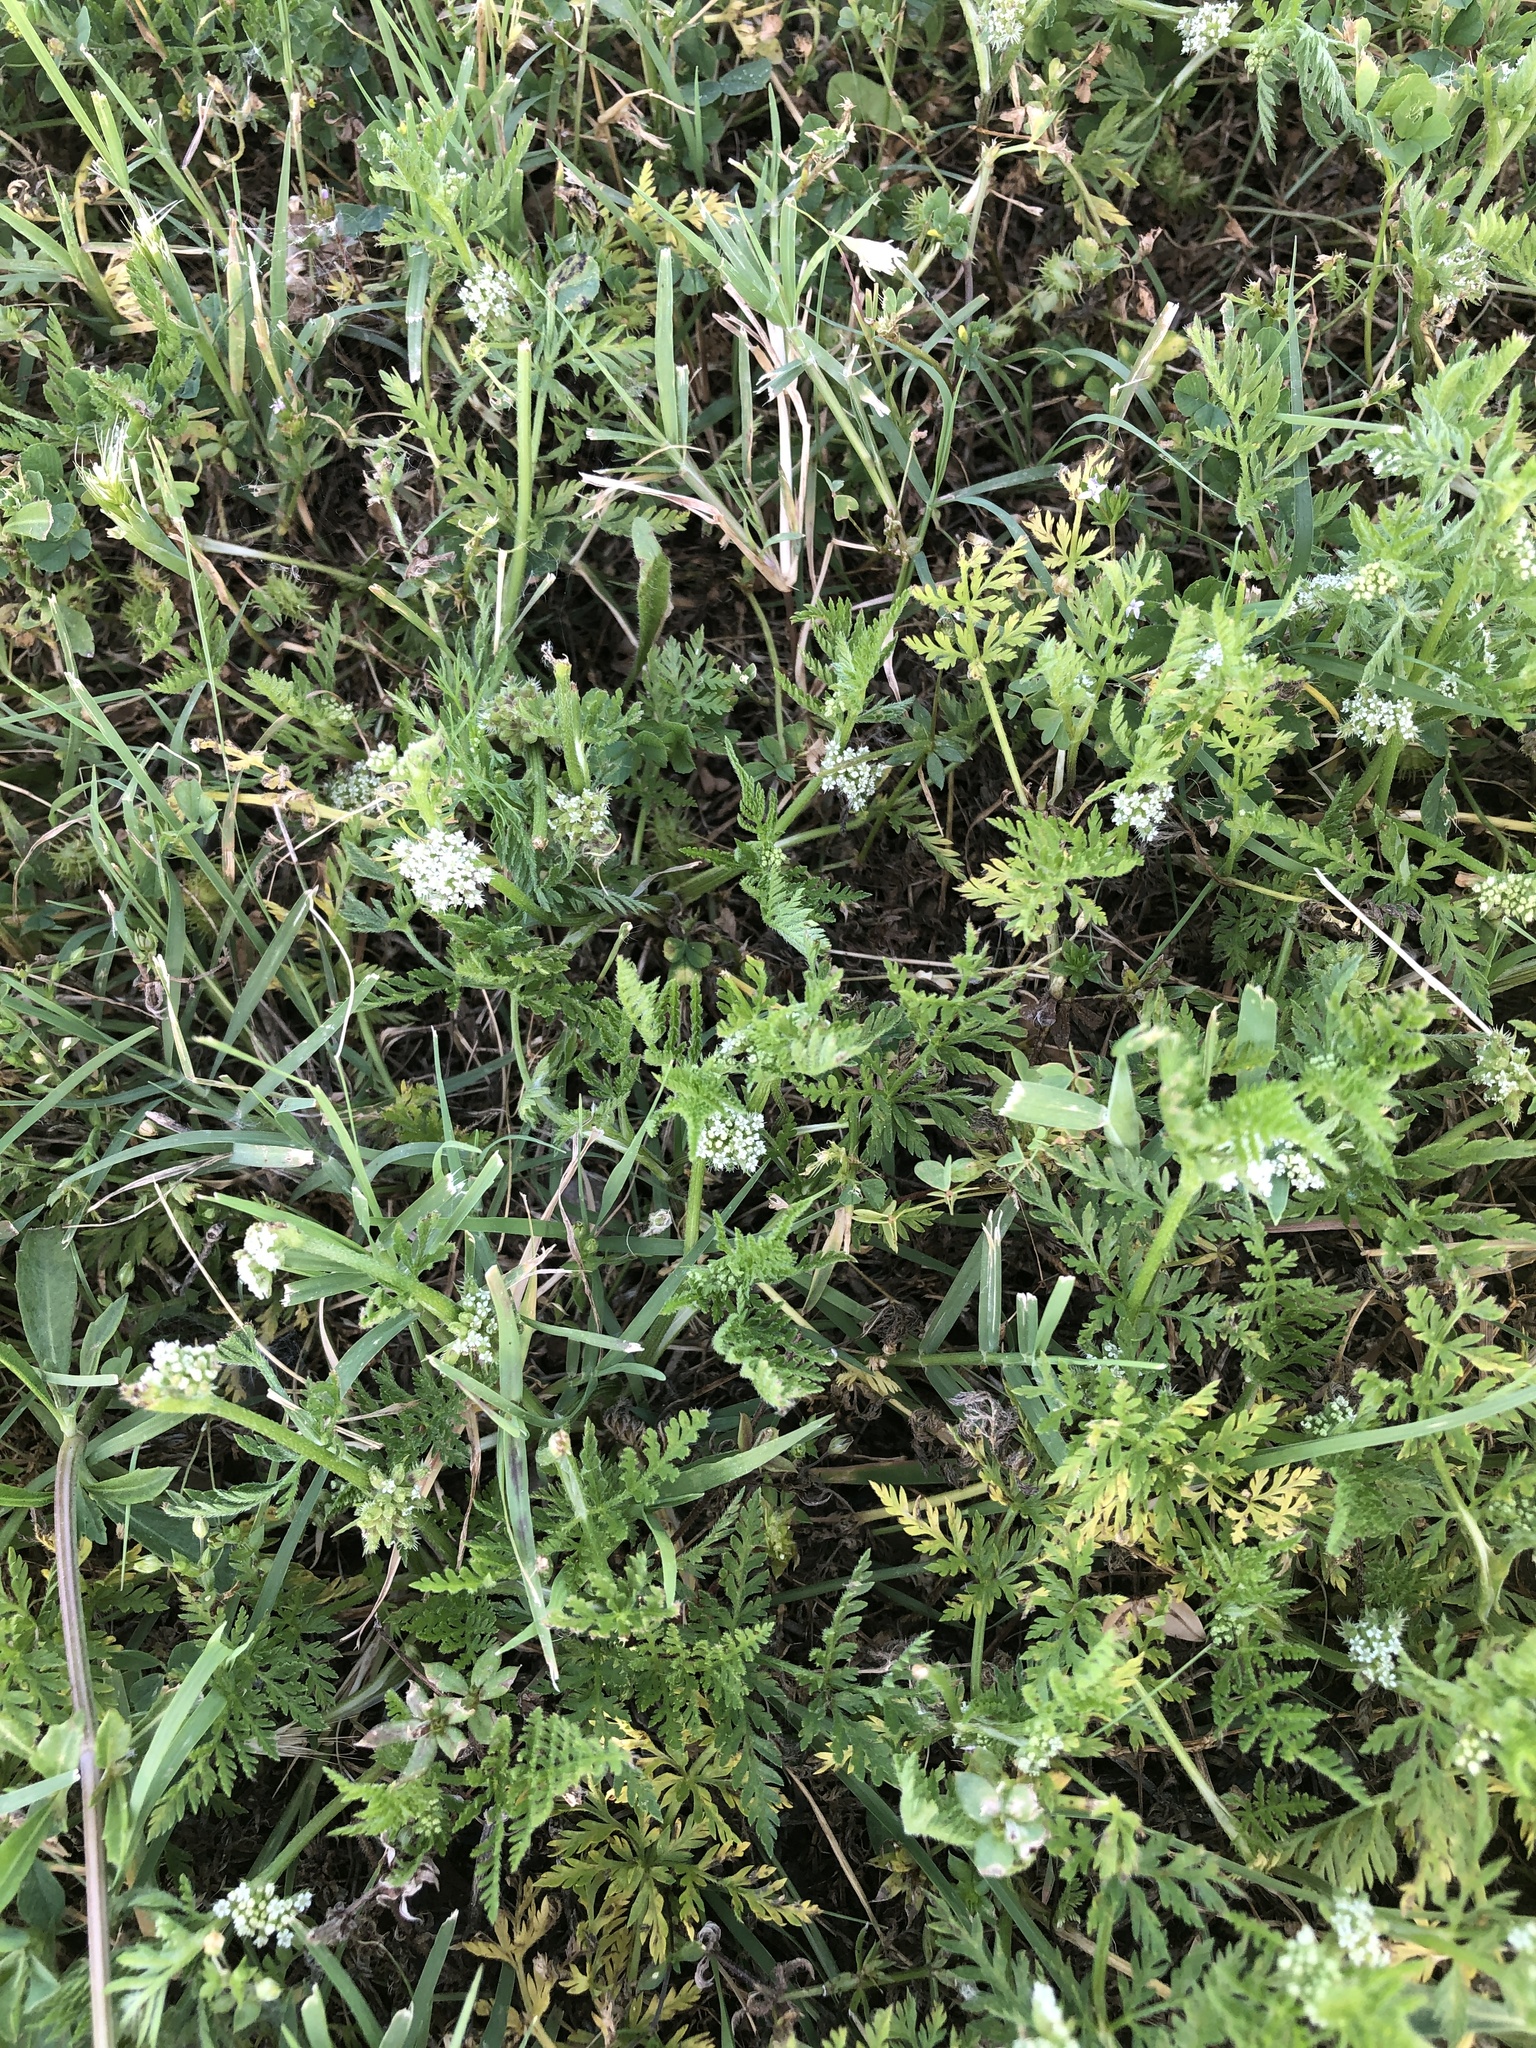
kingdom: Plantae
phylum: Tracheophyta
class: Magnoliopsida
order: Apiales
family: Apiaceae
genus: Torilis
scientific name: Torilis nodosa
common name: Knotted hedge-parsley
